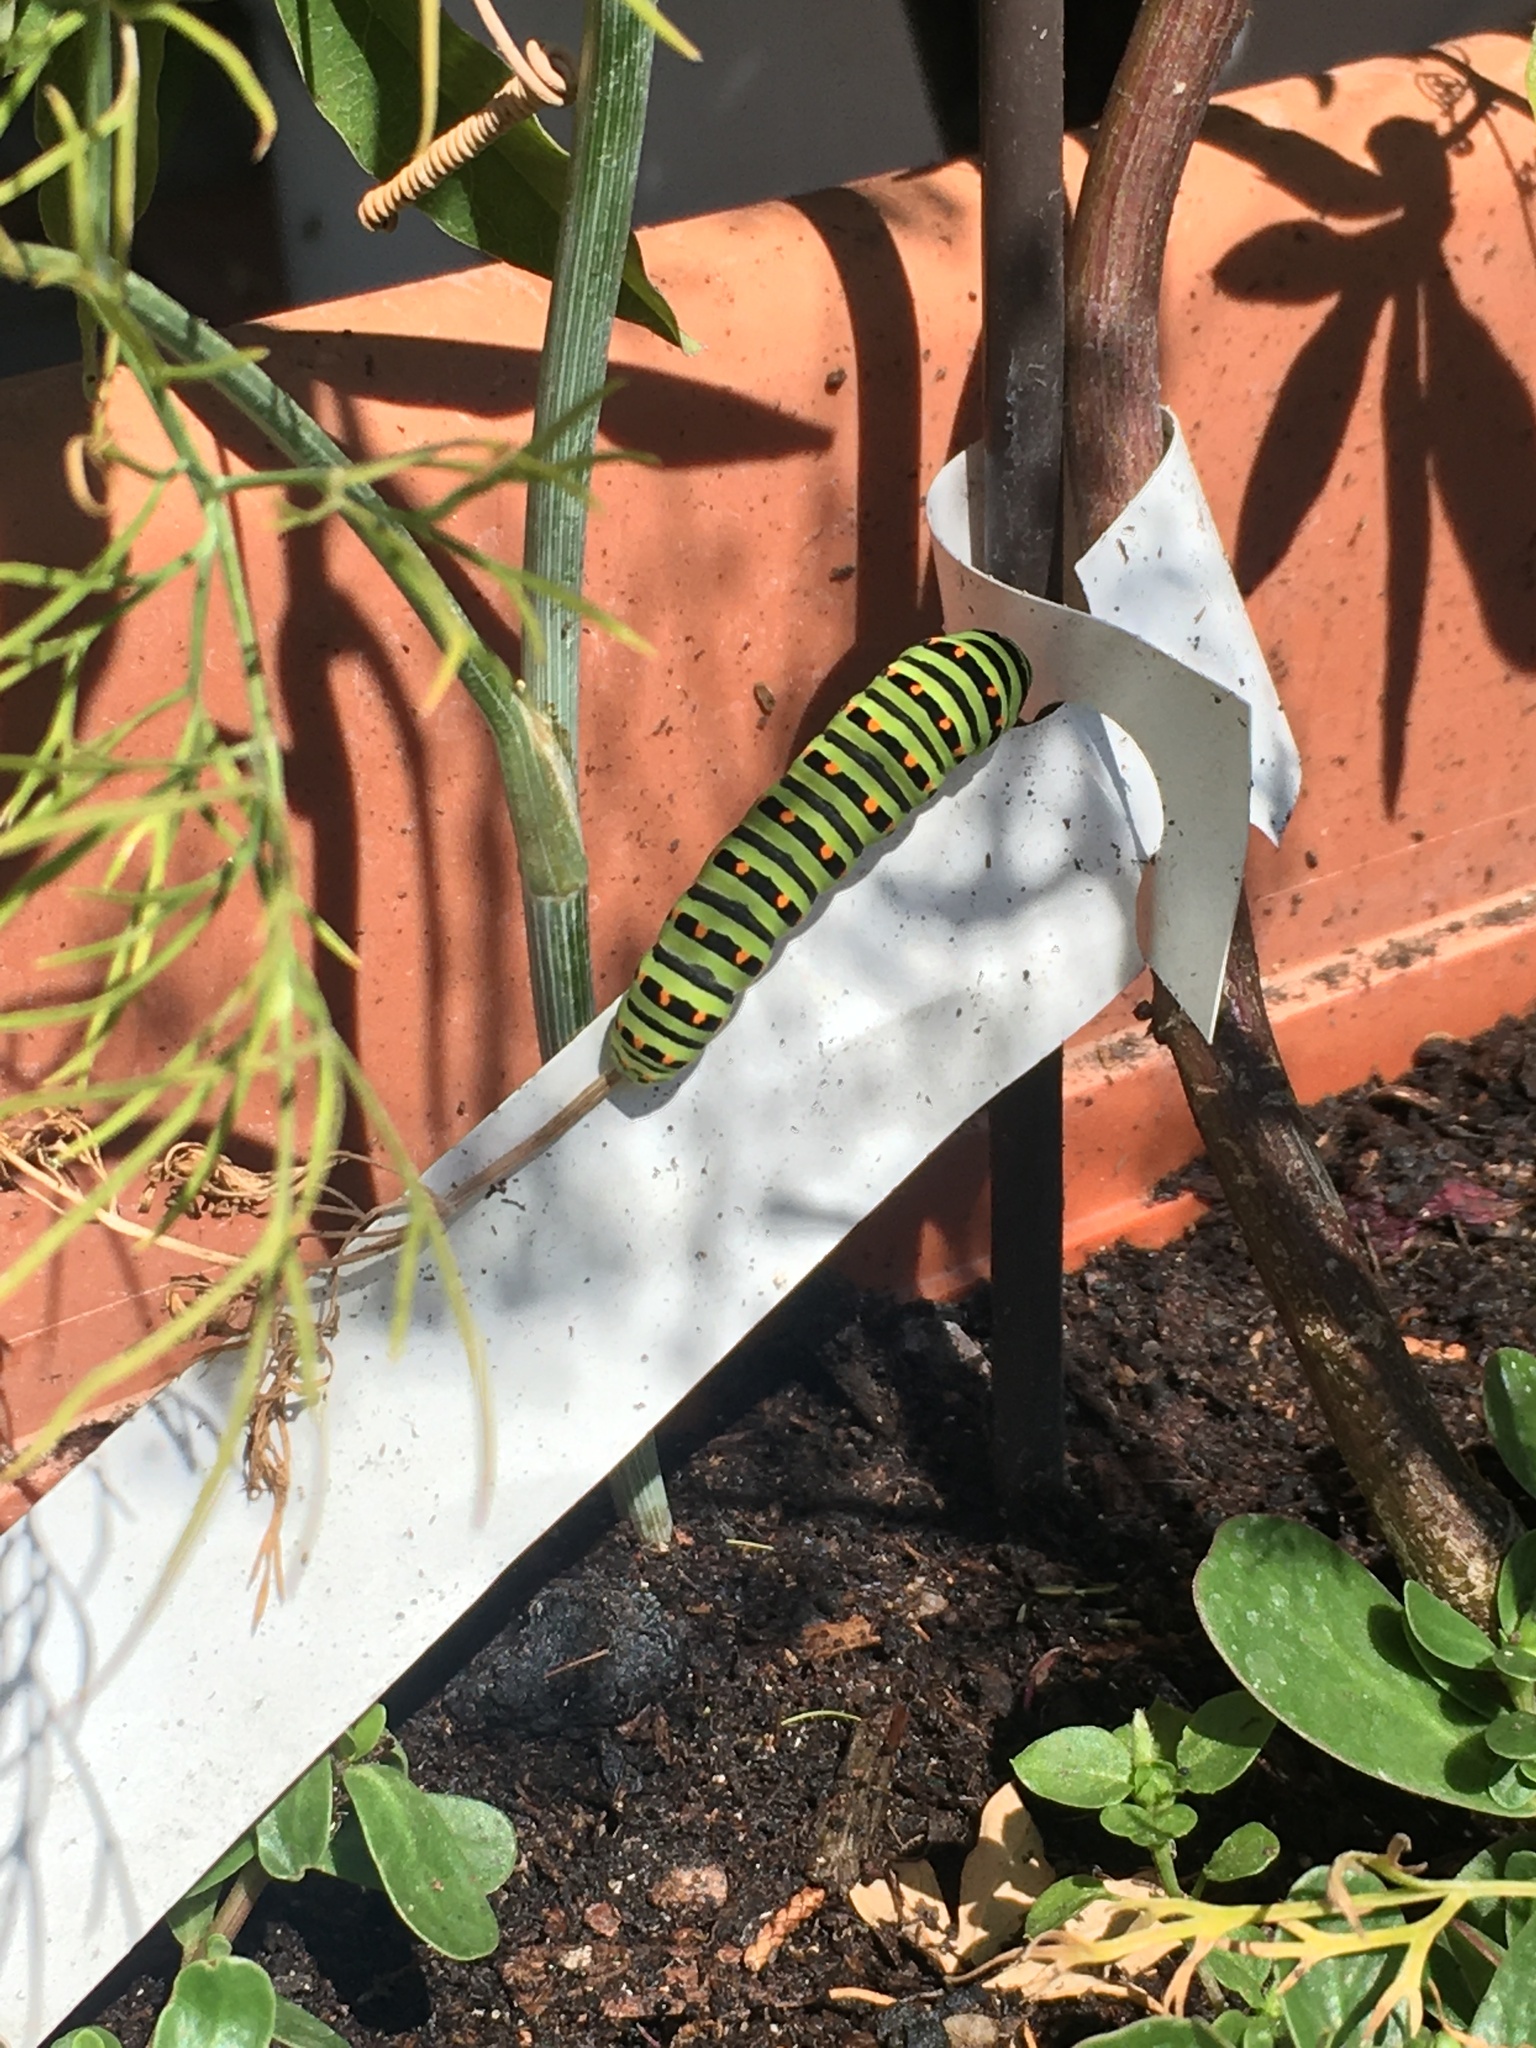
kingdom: Animalia
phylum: Arthropoda
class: Insecta
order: Lepidoptera
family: Papilionidae
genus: Papilio
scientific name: Papilio machaon
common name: Swallowtail
